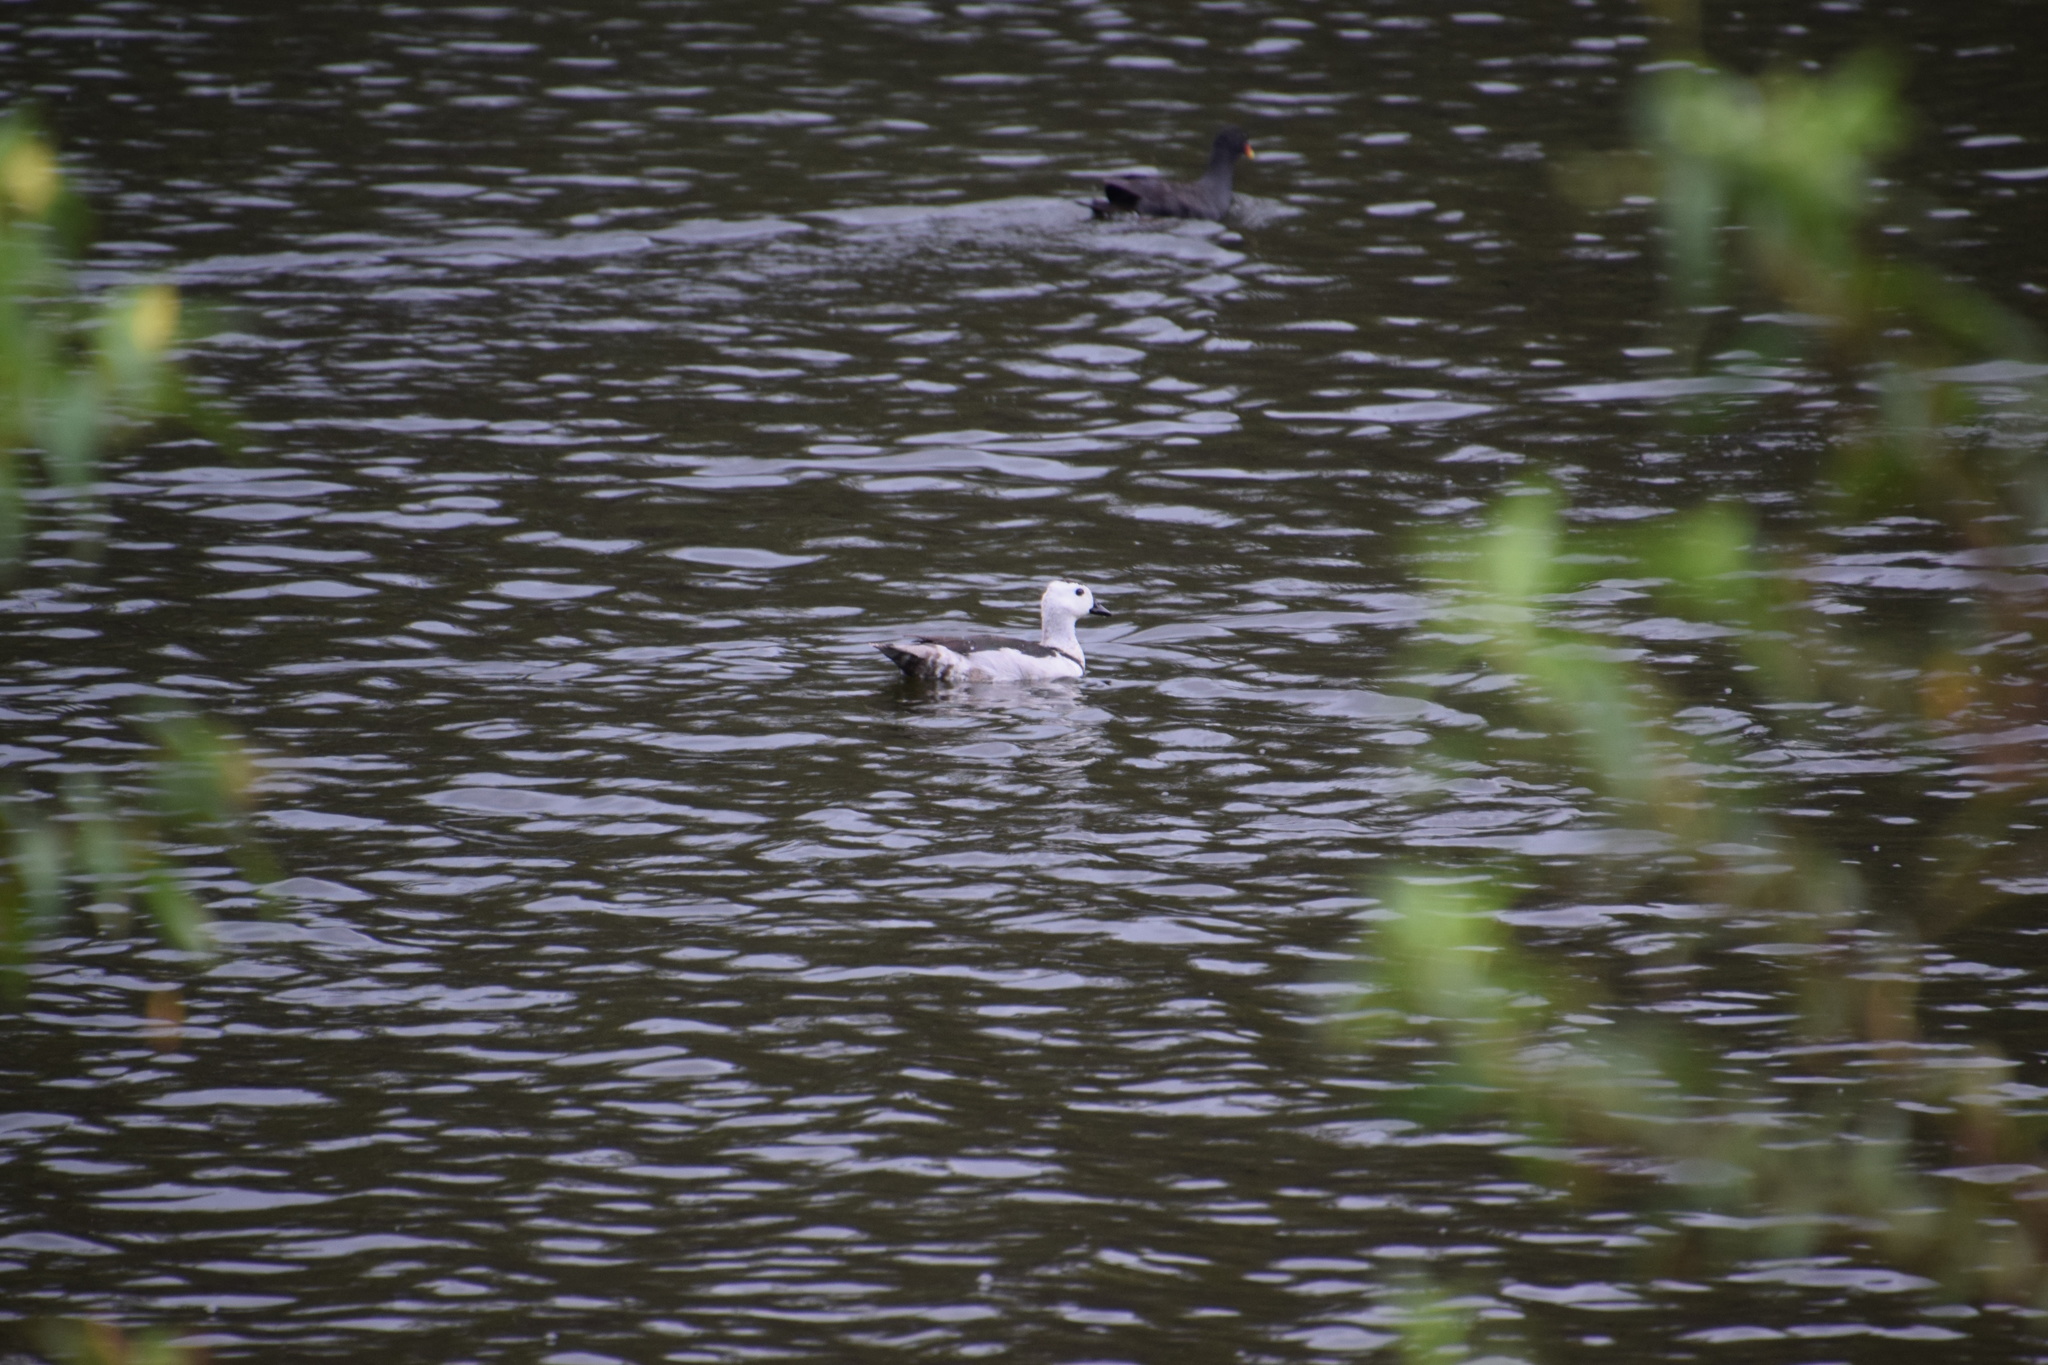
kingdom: Animalia
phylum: Chordata
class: Aves
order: Anseriformes
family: Anatidae
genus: Nettapus
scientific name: Nettapus coromandelianus
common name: Cotton pygmy-goose
